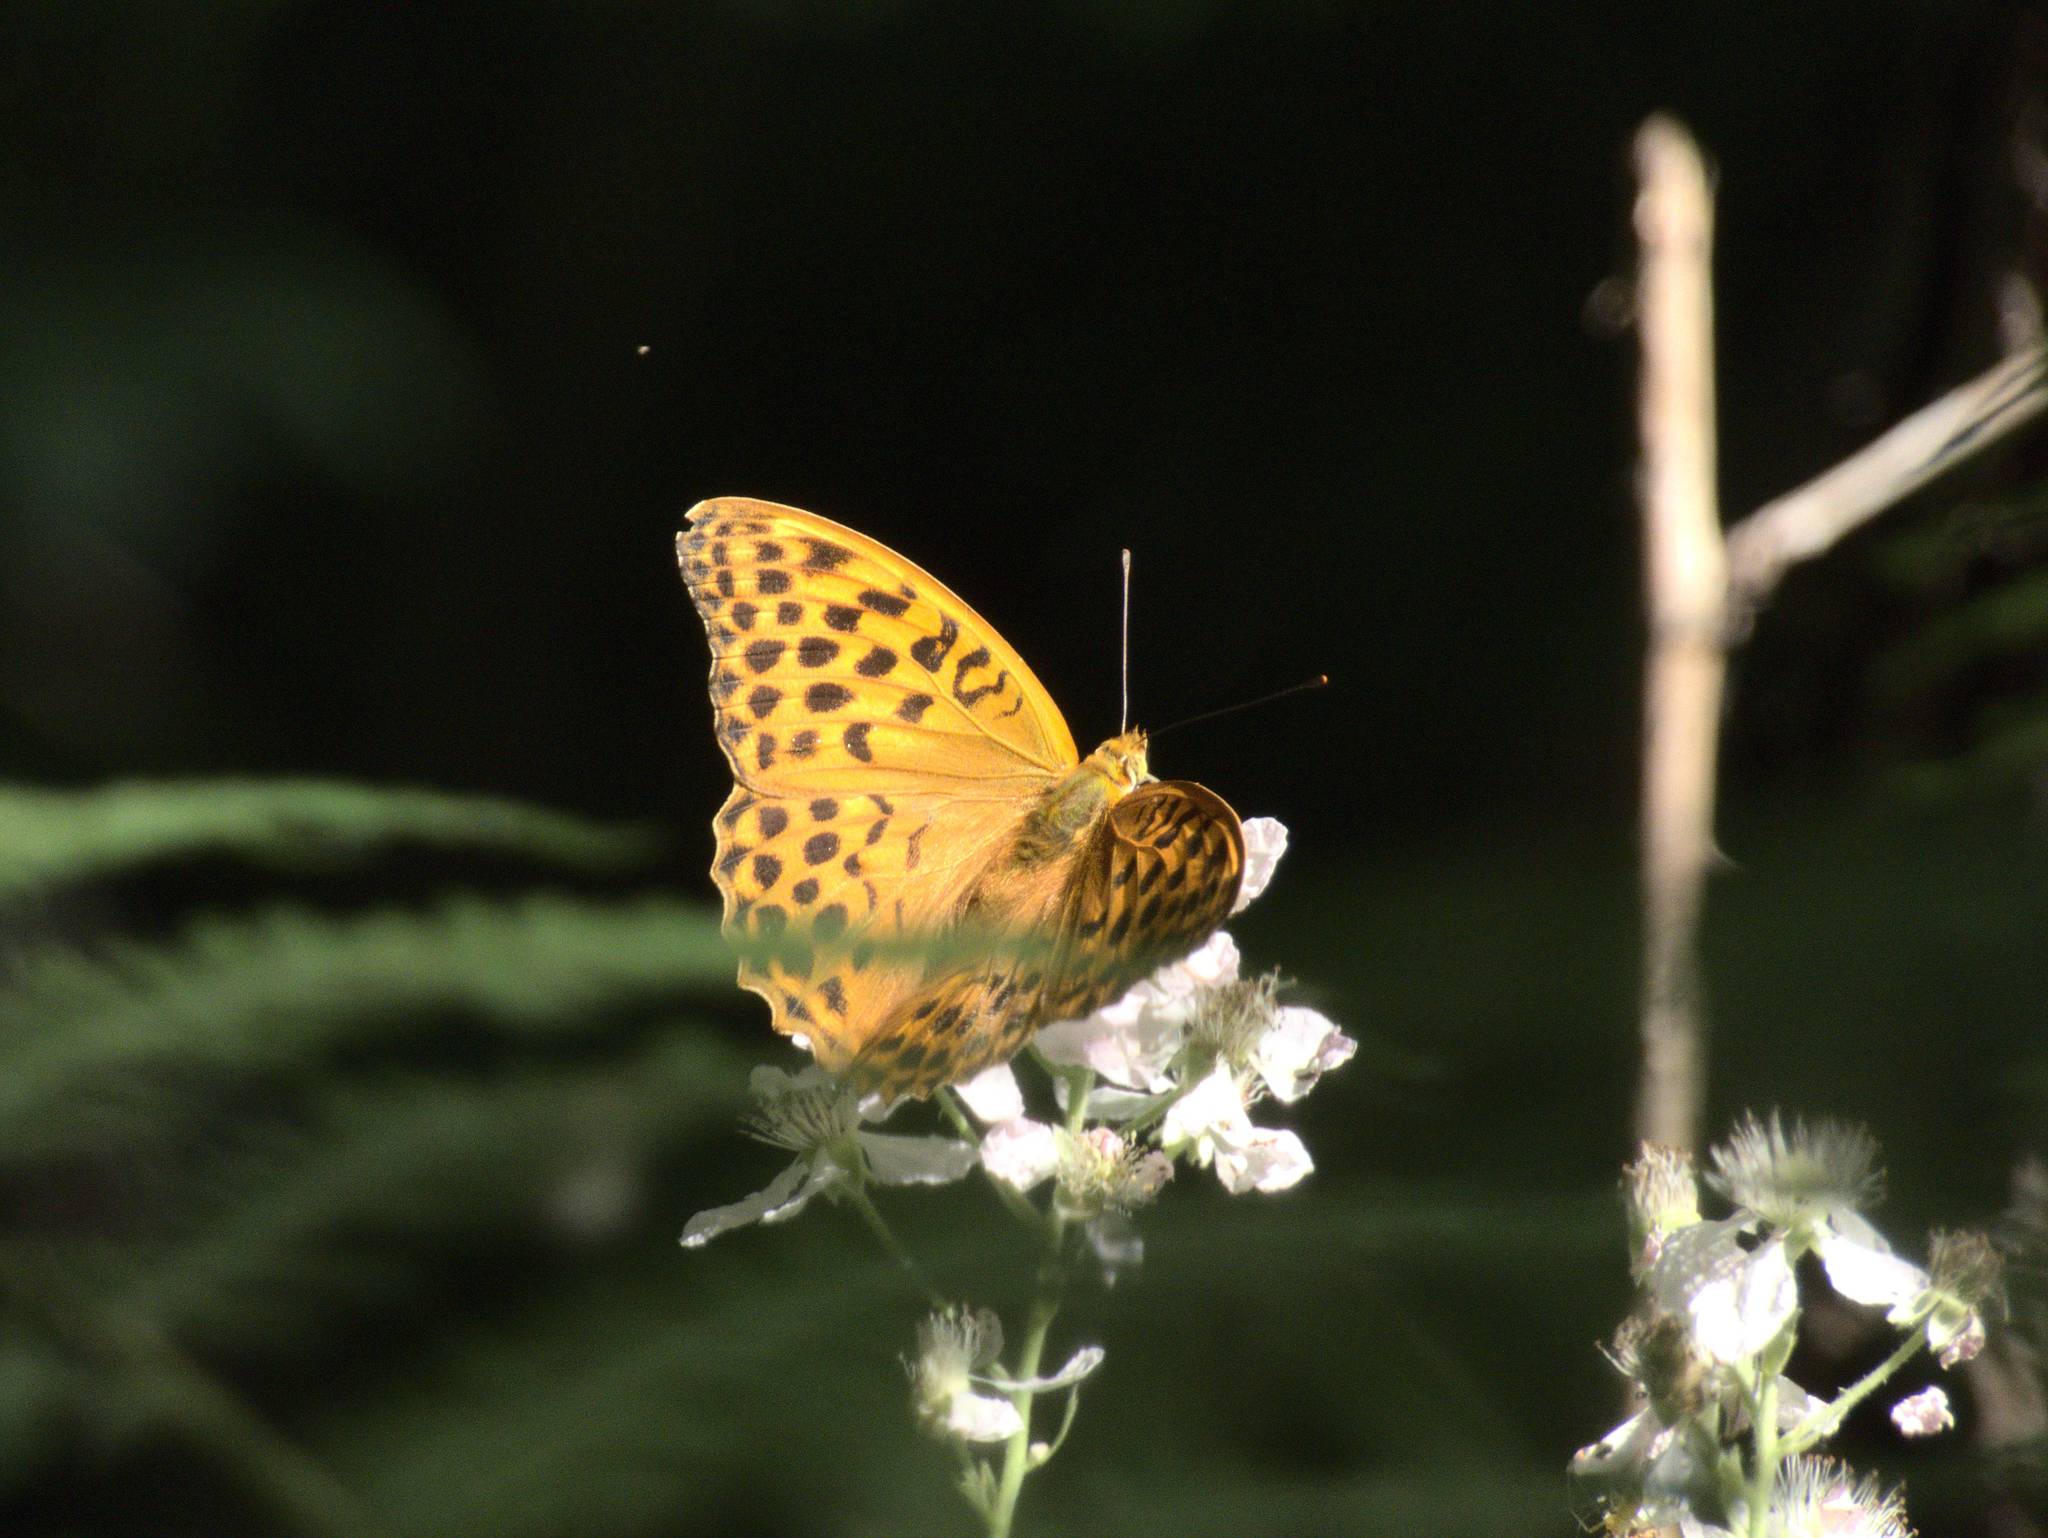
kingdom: Animalia
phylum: Arthropoda
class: Insecta
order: Lepidoptera
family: Nymphalidae
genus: Argynnis
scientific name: Argynnis paphia
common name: Silver-washed fritillary
